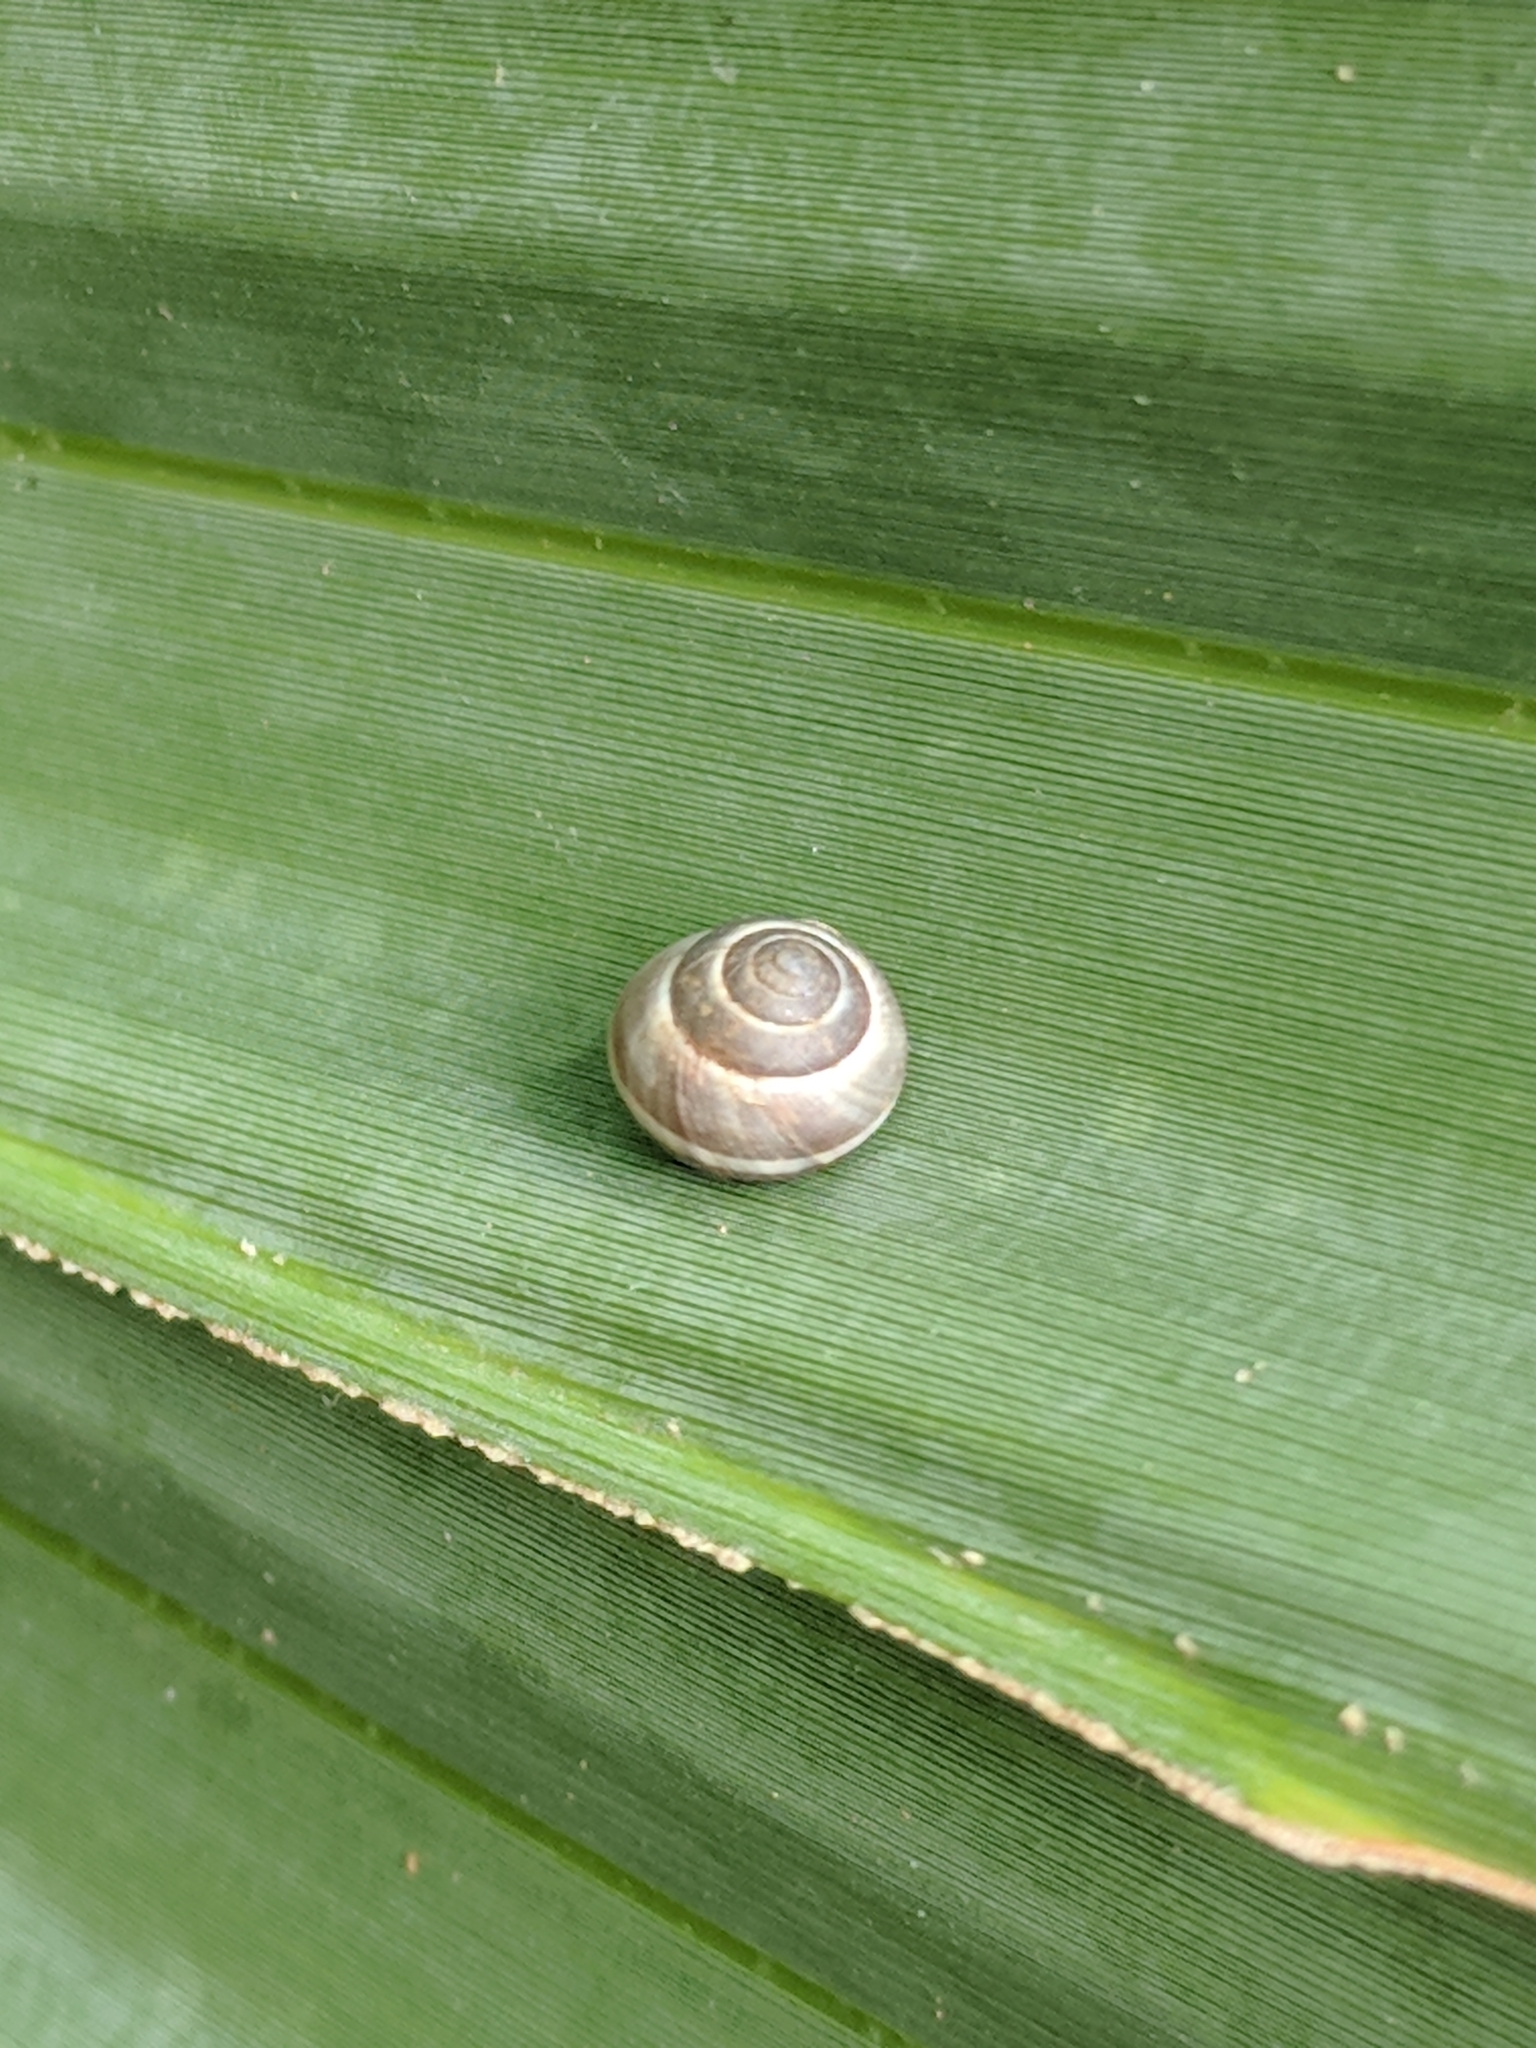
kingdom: Animalia
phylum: Mollusca
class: Gastropoda
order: Cycloneritida
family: Helicinidae
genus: Helicina
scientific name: Helicina orbiculata
